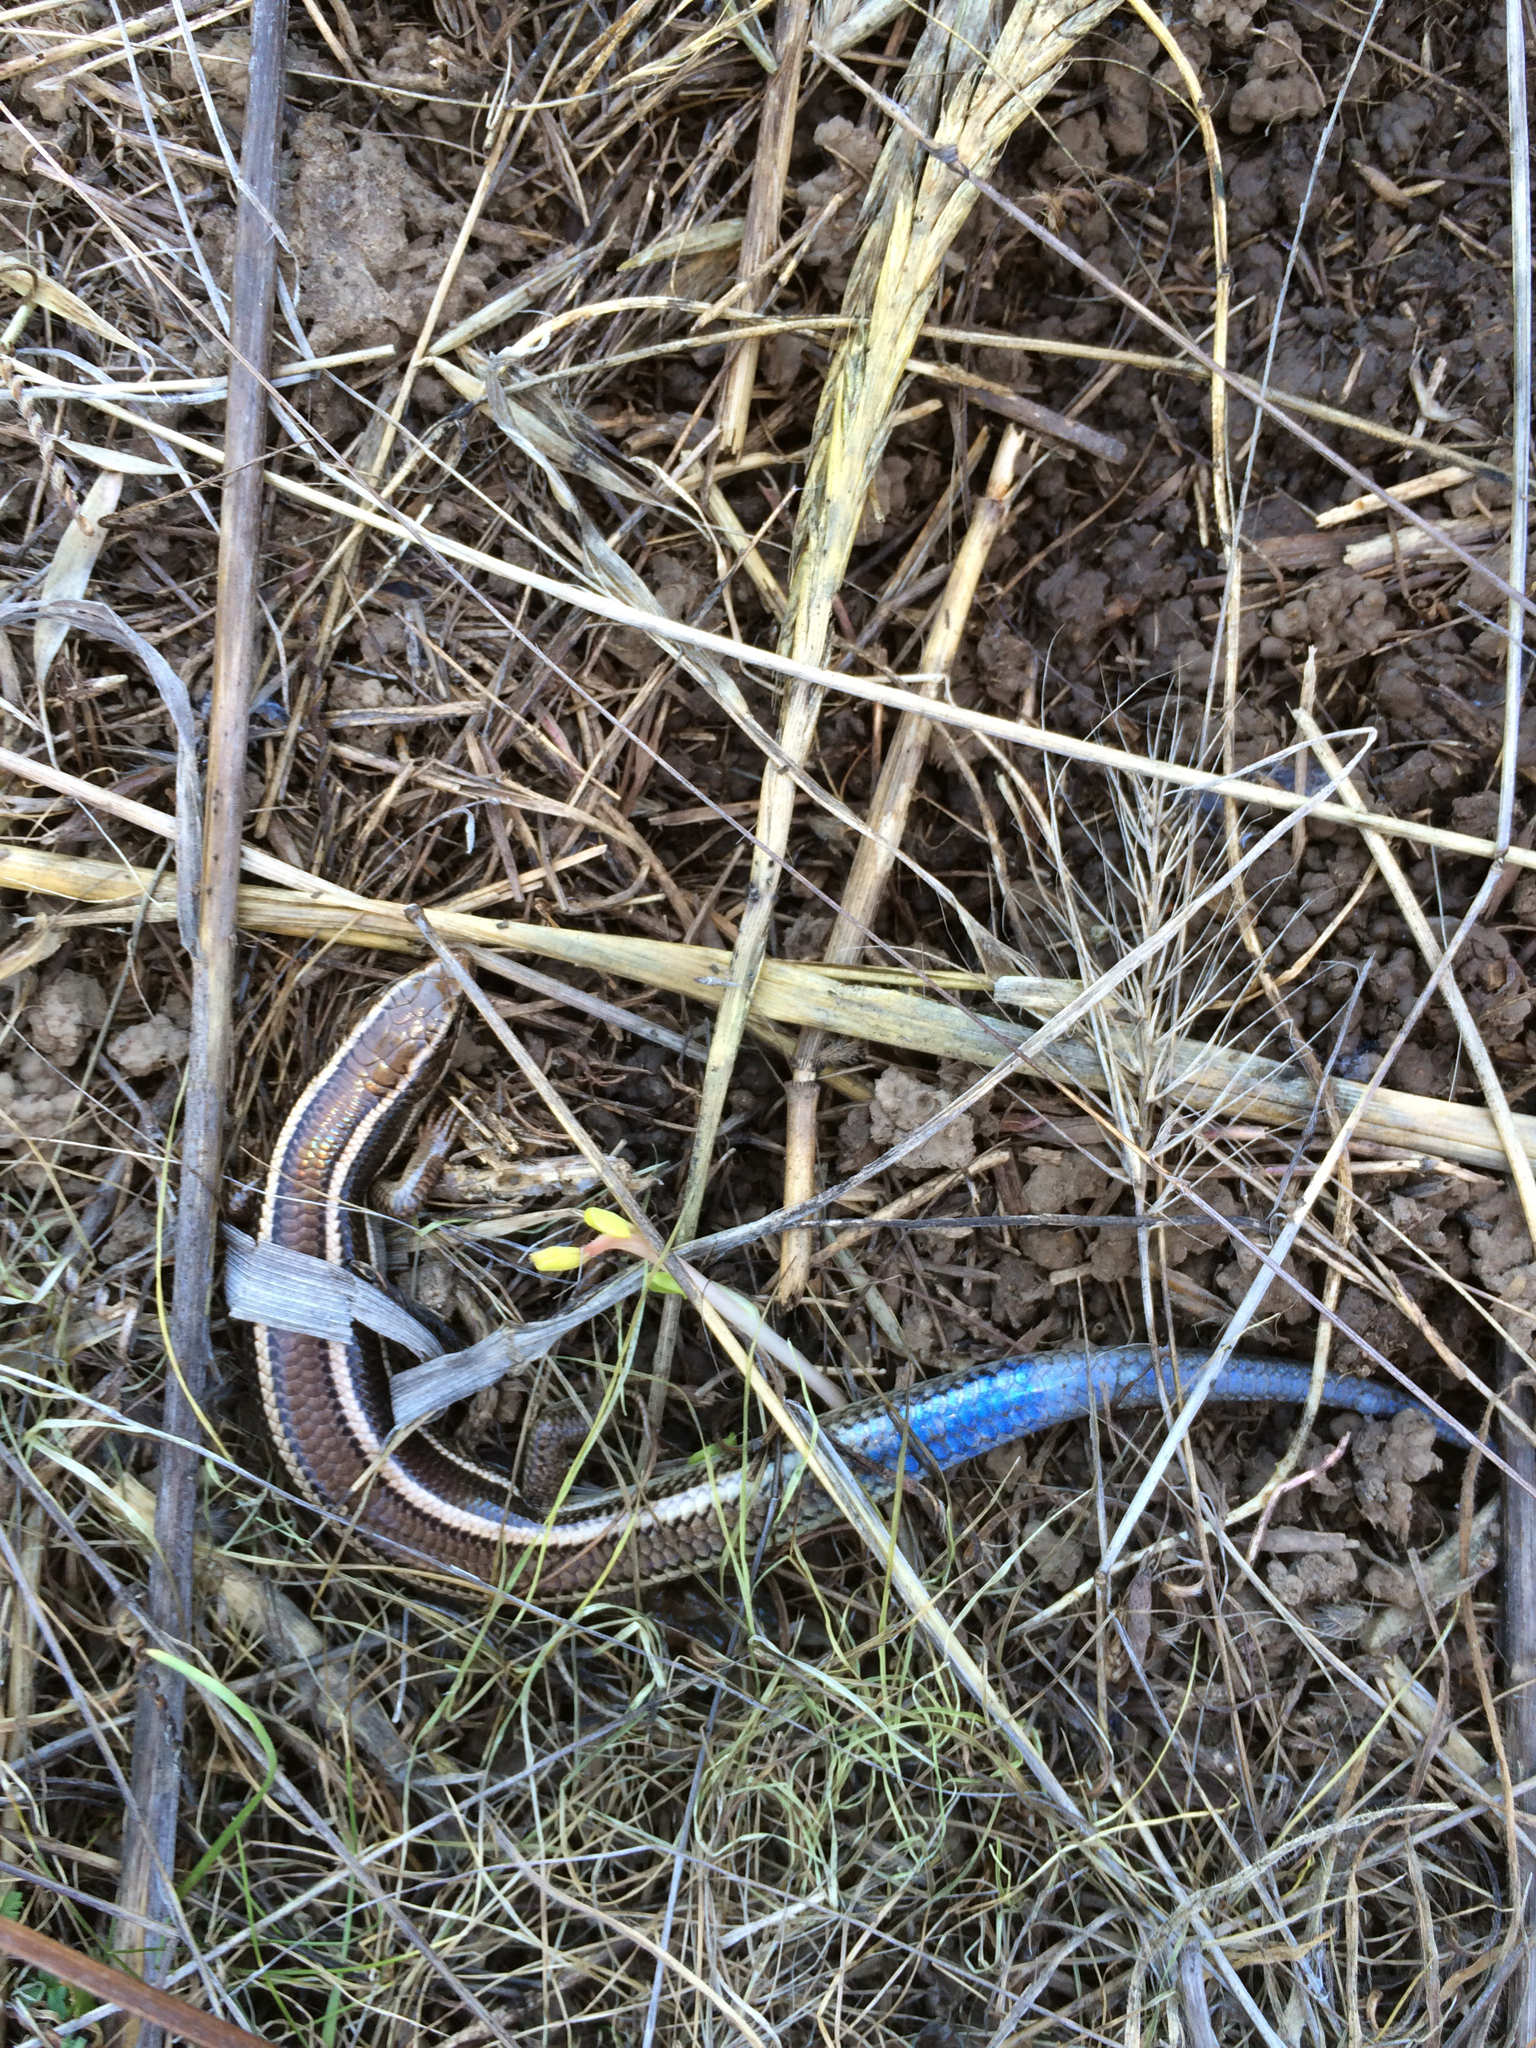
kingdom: Animalia
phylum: Chordata
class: Squamata
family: Scincidae
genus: Plestiodon
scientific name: Plestiodon skiltonianus
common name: Coronado island skink [interparietalis]
